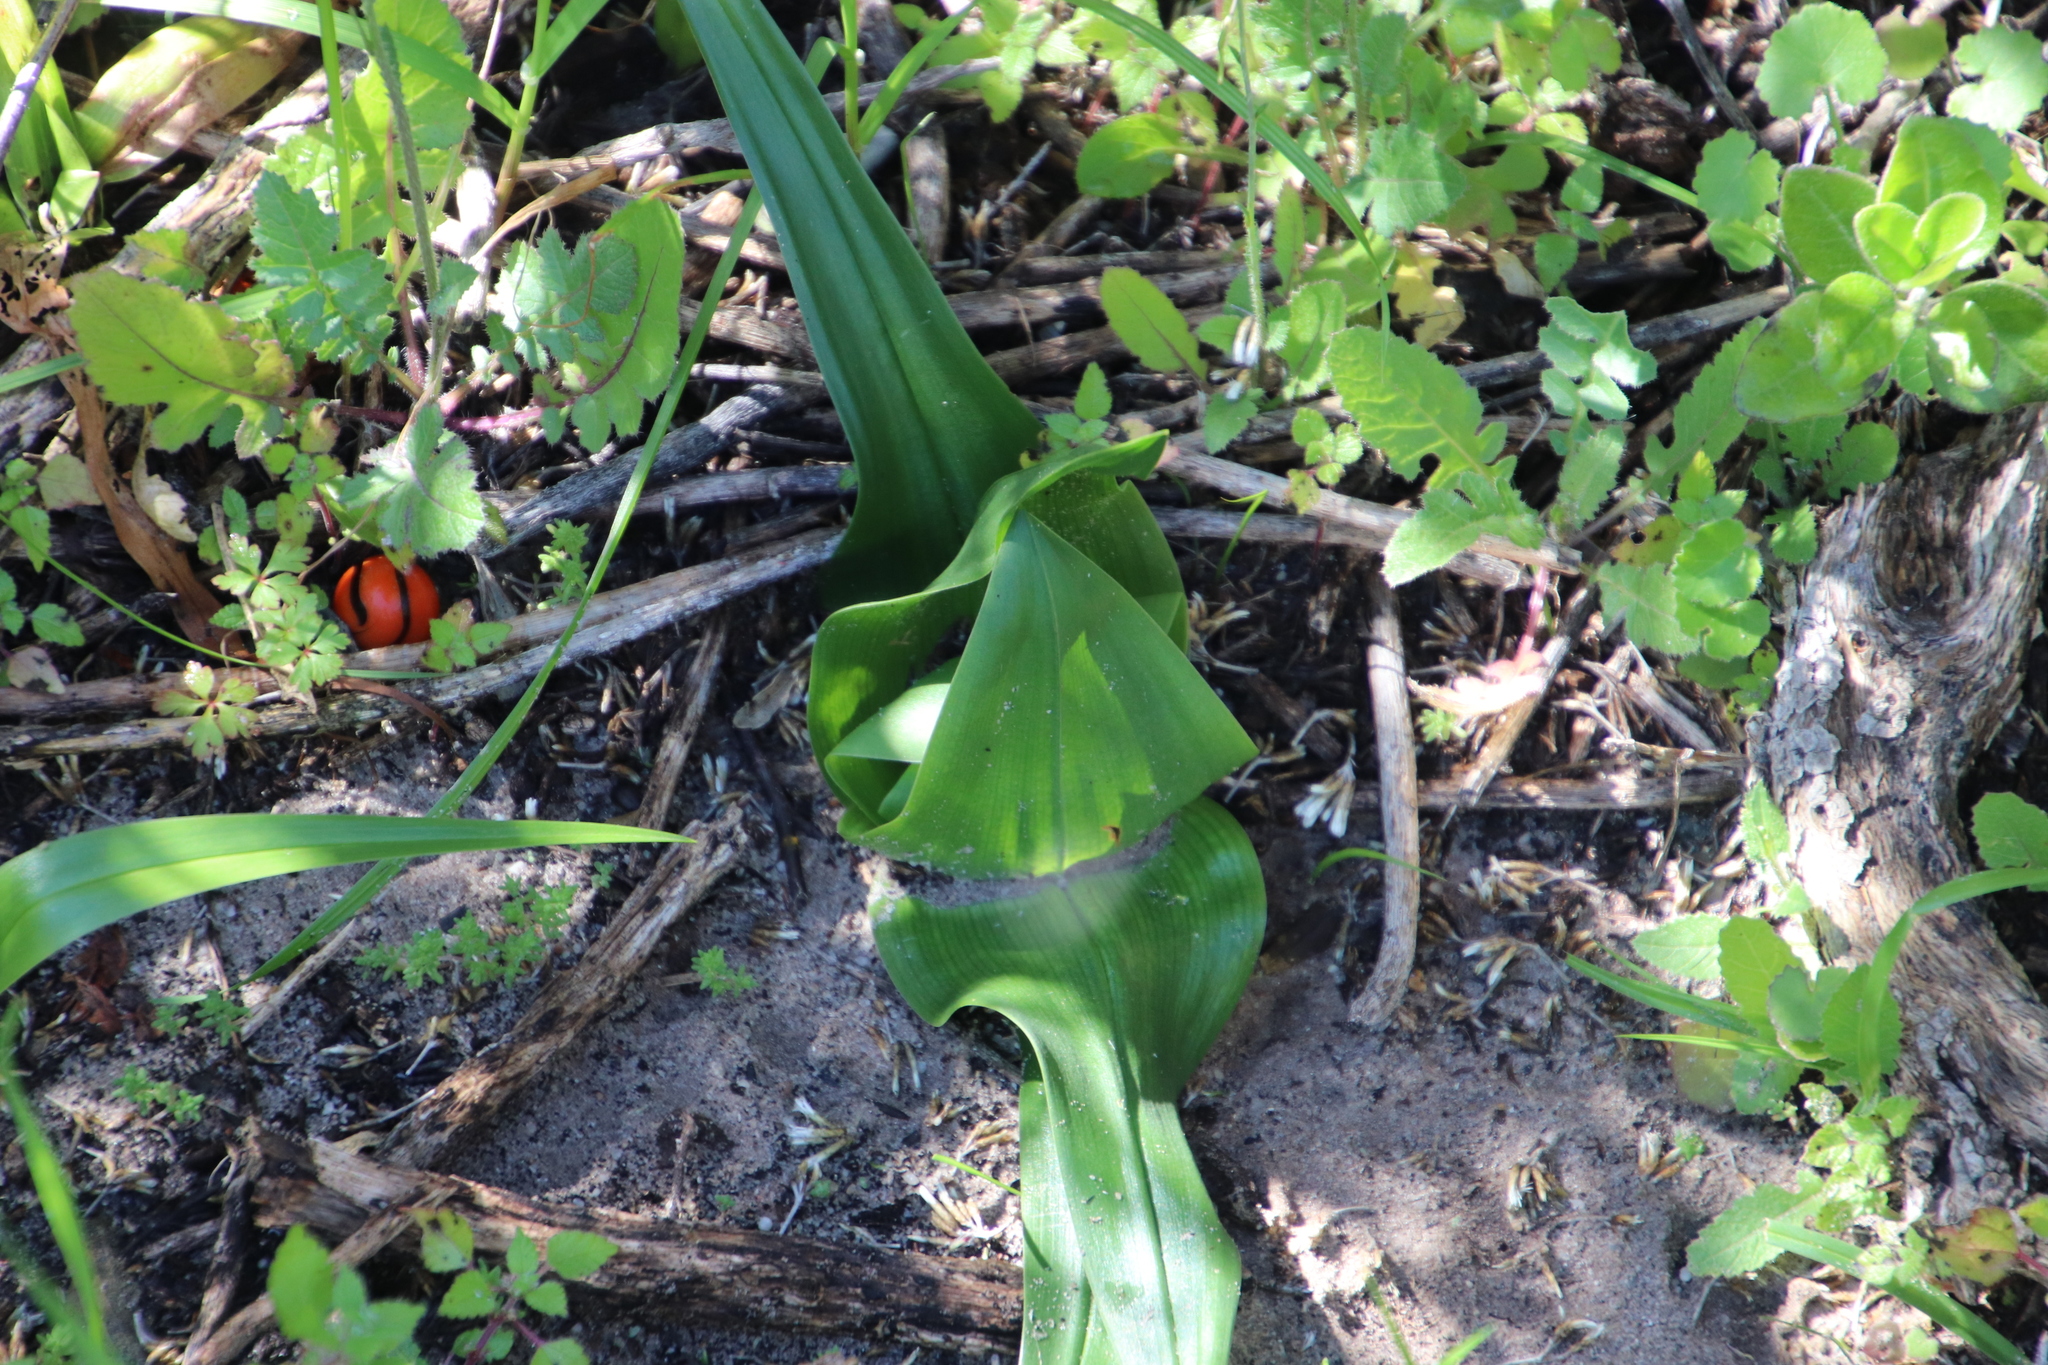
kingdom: Plantae
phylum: Tracheophyta
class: Liliopsida
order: Liliales
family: Colchicaceae
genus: Colchicum
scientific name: Colchicum eucomoides
